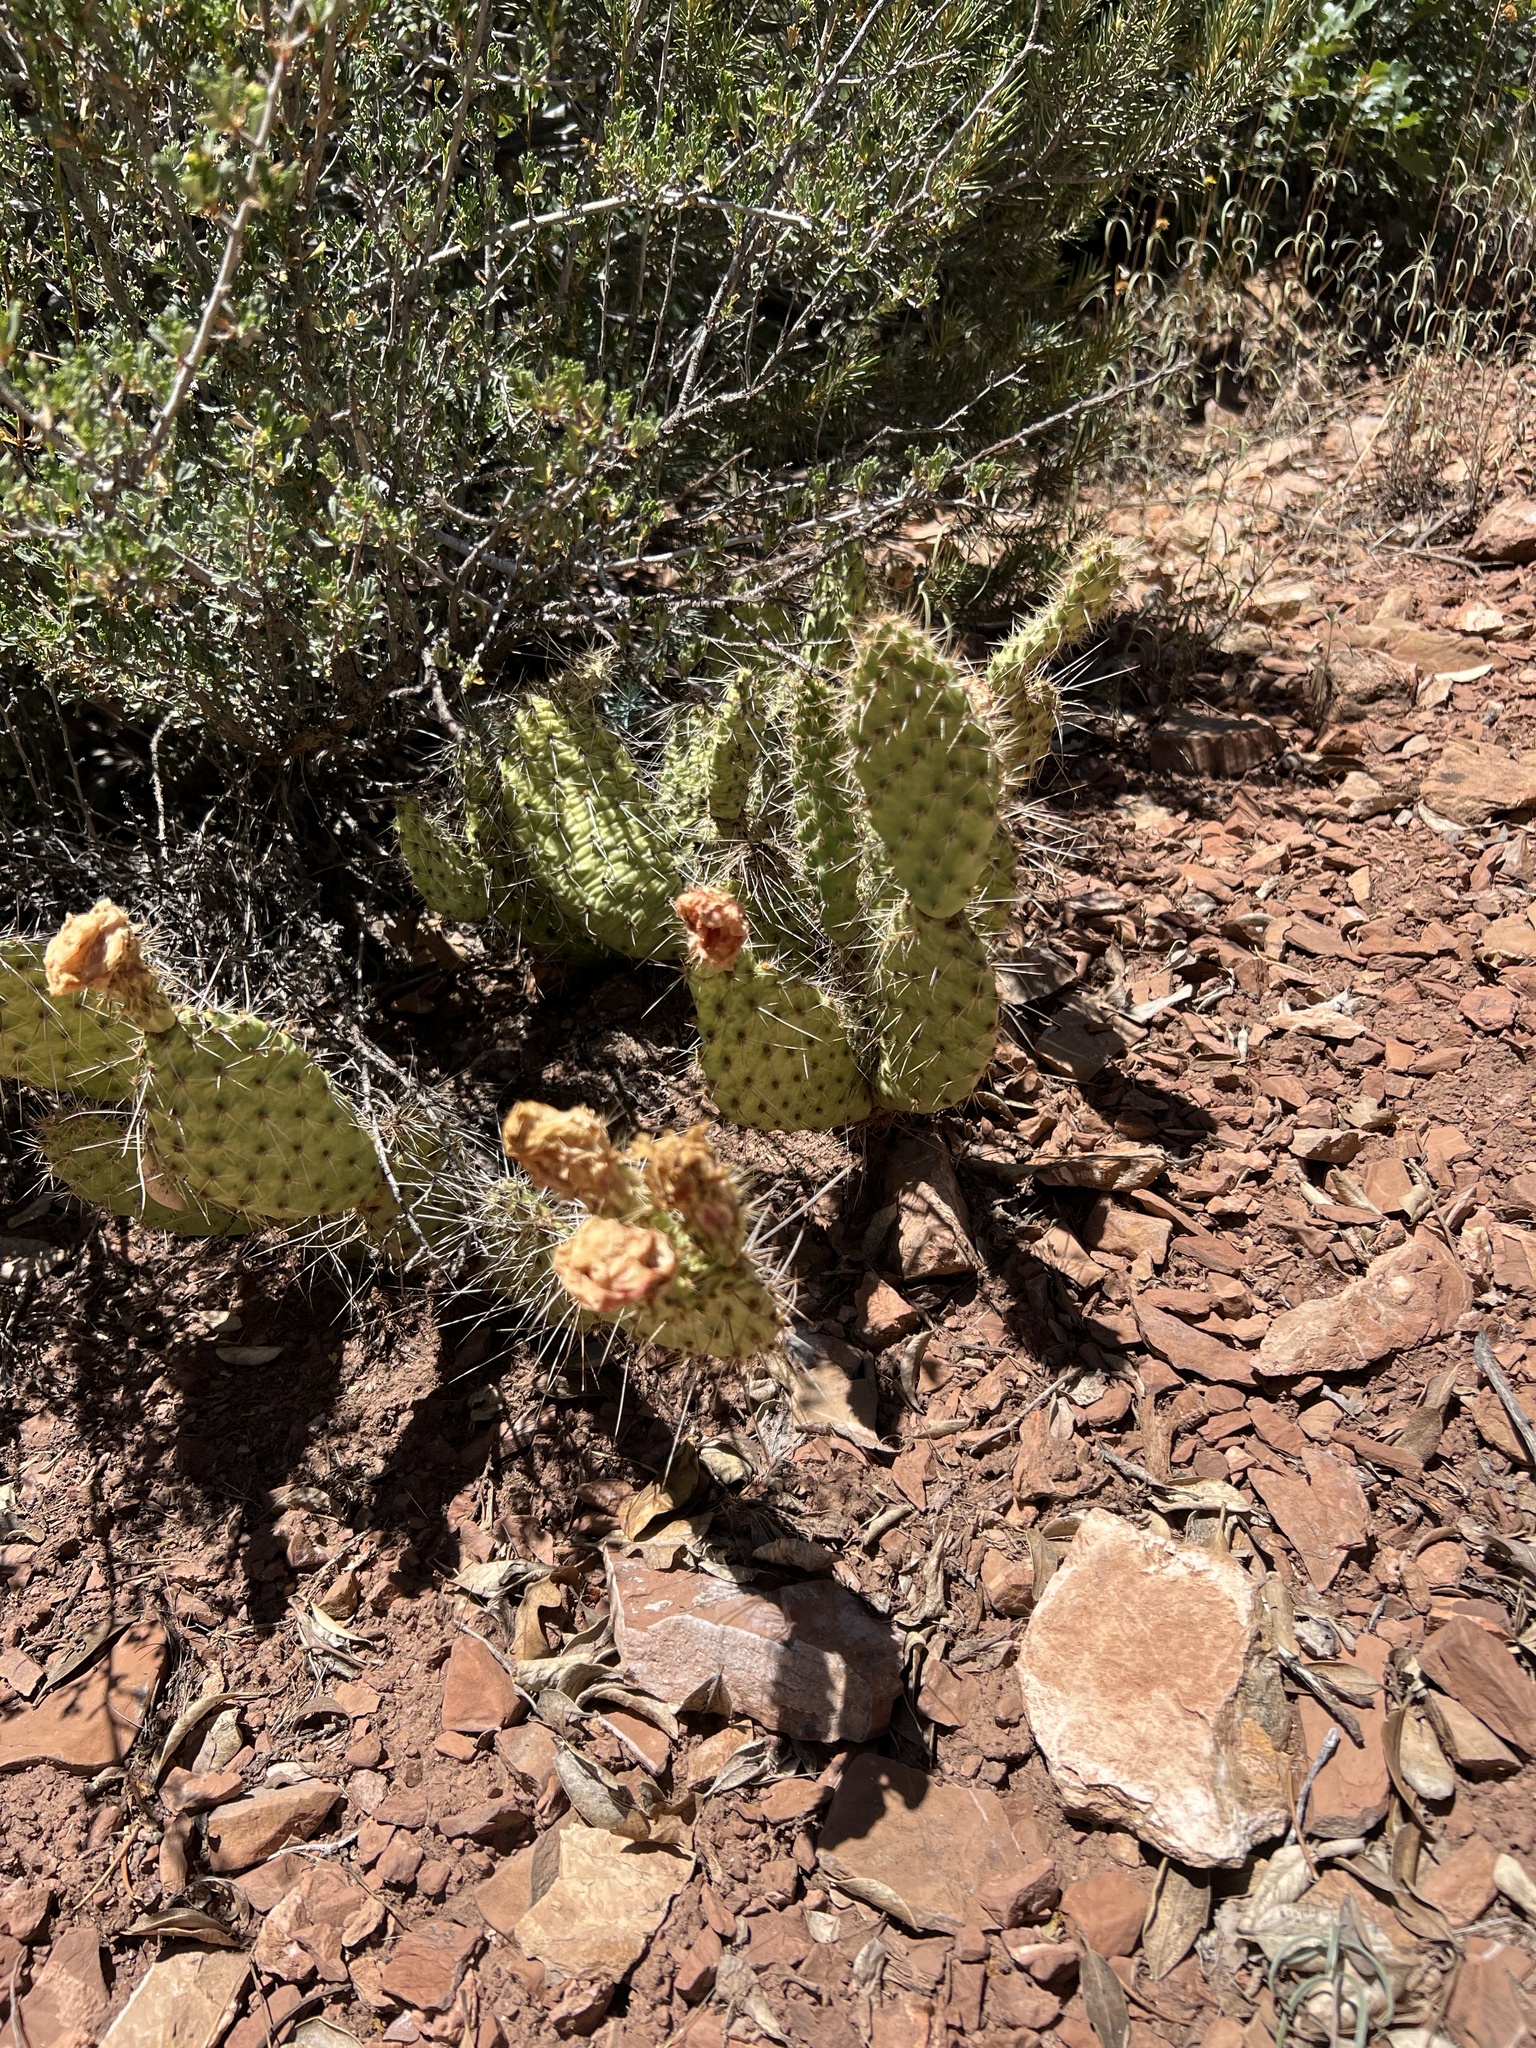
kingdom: Plantae
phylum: Tracheophyta
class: Magnoliopsida
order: Caryophyllales
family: Cactaceae
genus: Opuntia
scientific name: Opuntia polyacantha
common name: Plains prickly-pear
